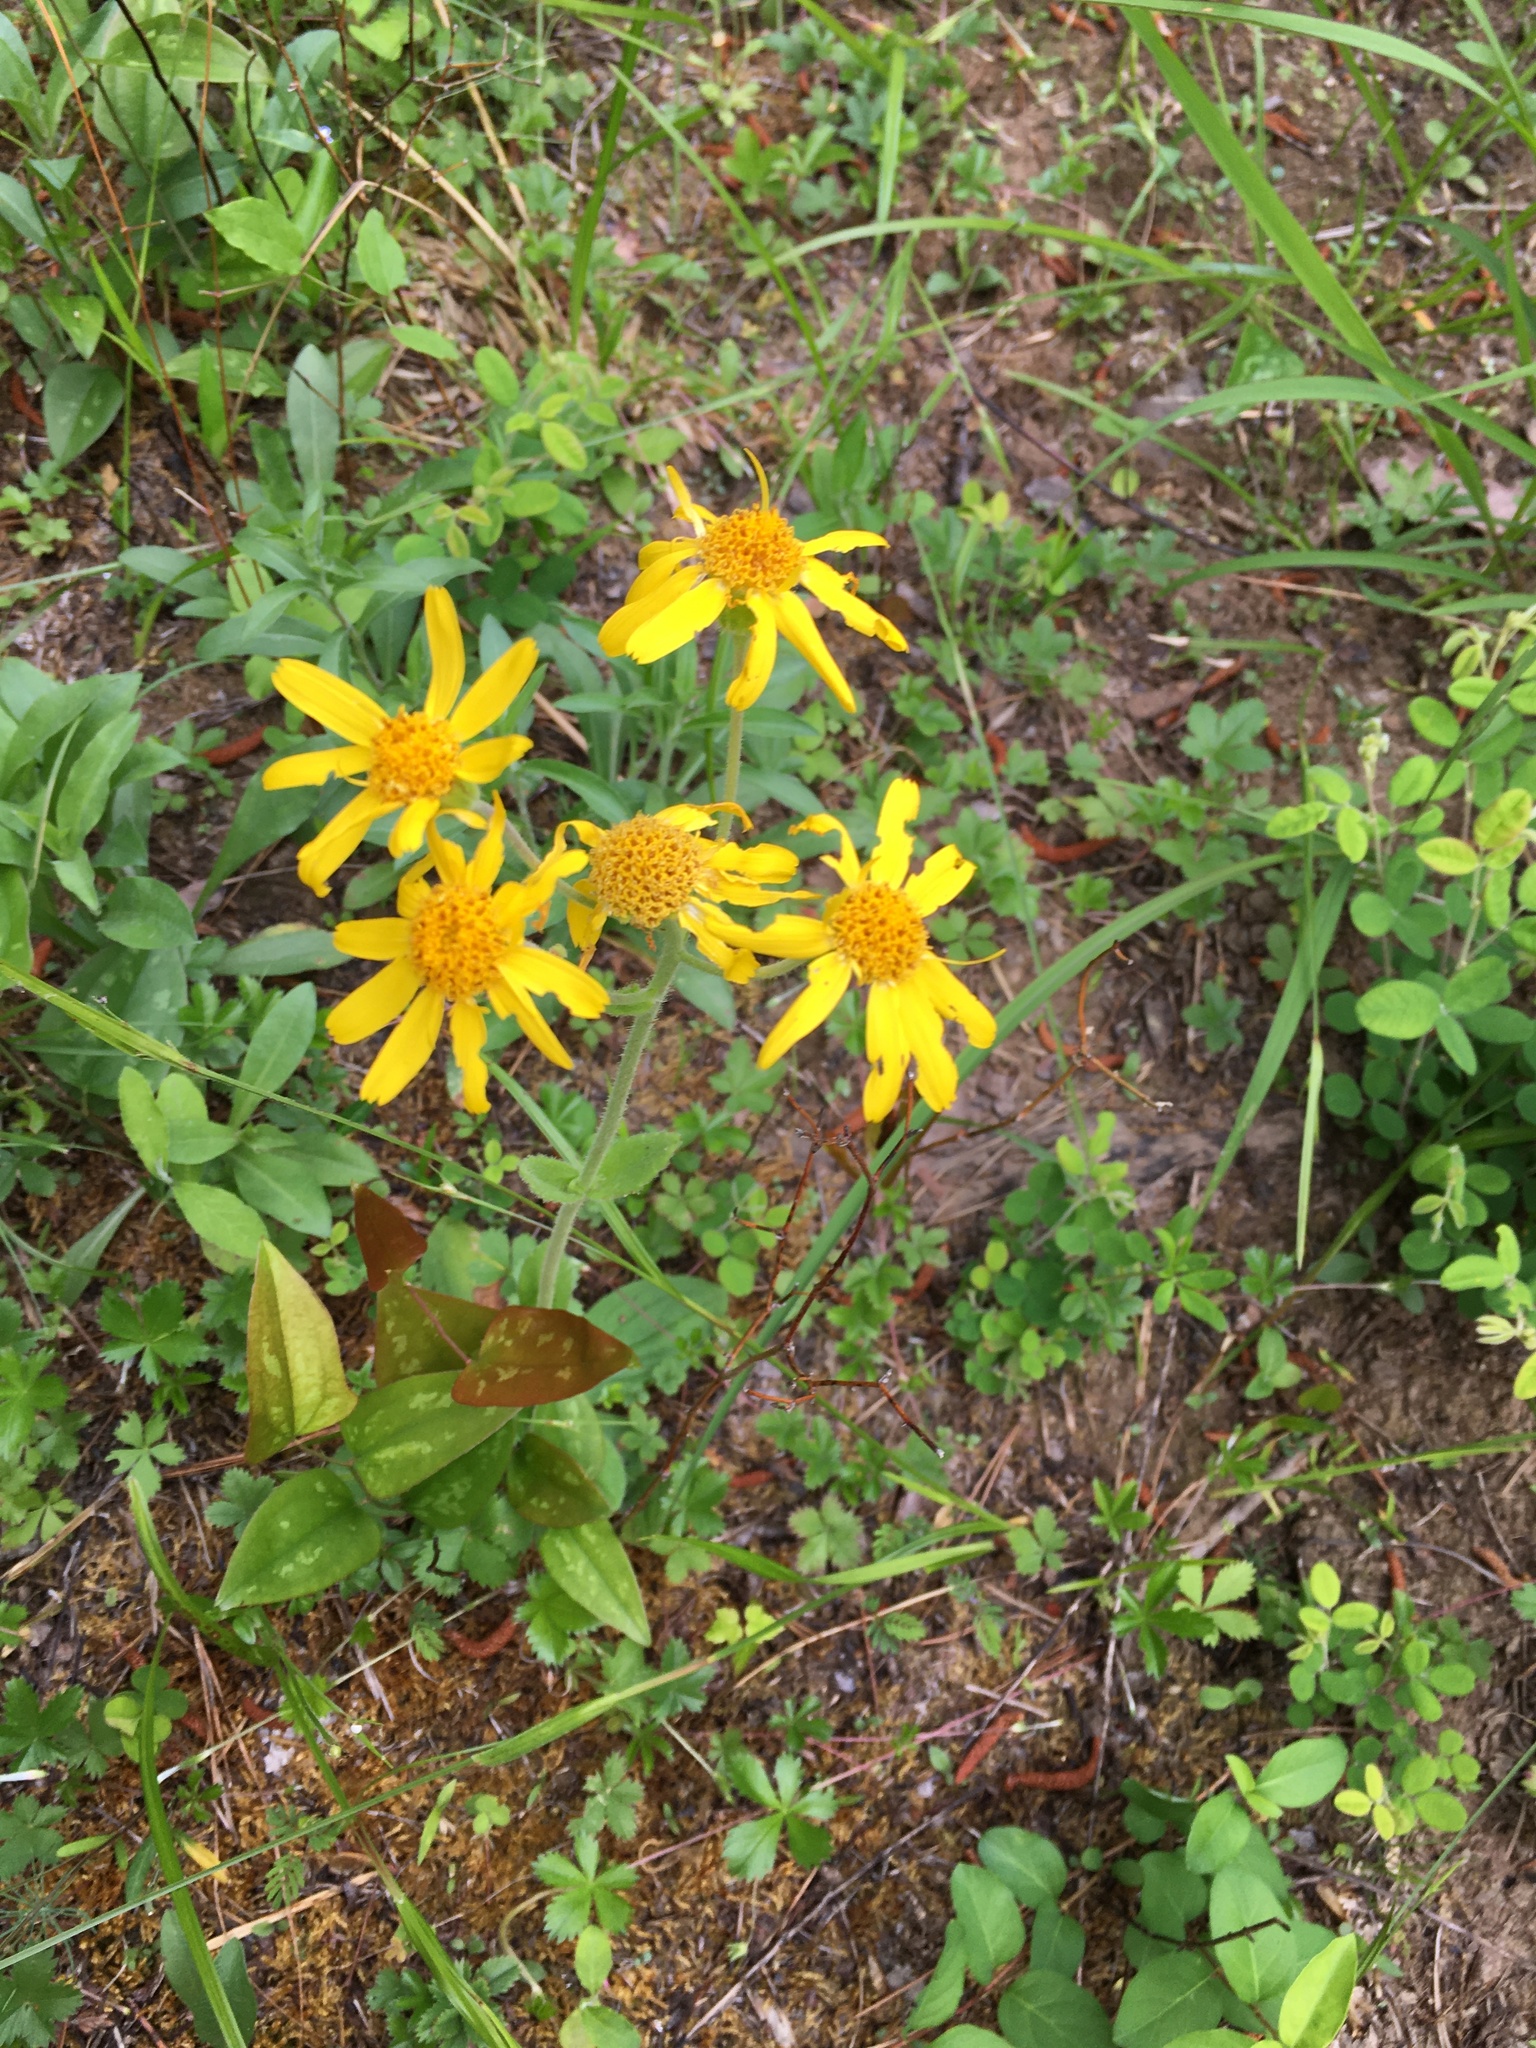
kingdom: Plantae
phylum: Tracheophyta
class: Magnoliopsida
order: Asterales
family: Asteraceae
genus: Arnica
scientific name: Arnica acaulis
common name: Common leopardbane
